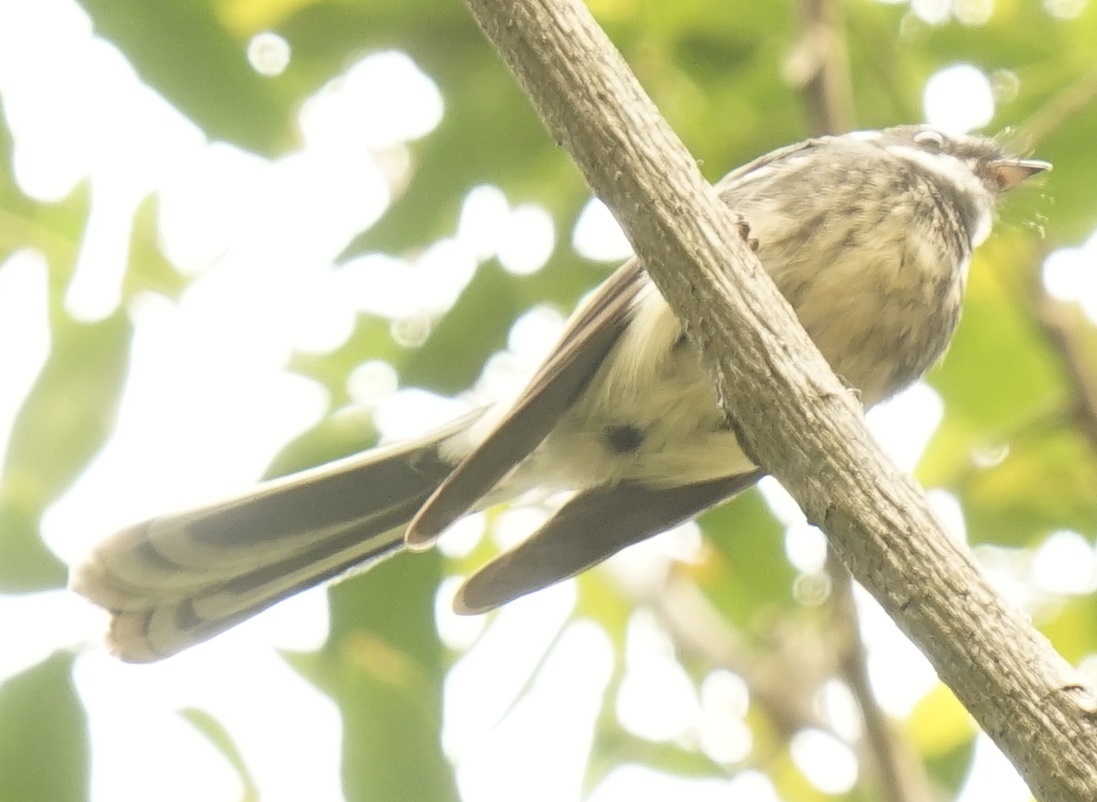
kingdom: Animalia
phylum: Chordata
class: Aves
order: Passeriformes
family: Rhipiduridae
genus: Rhipidura
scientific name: Rhipidura albiscapa
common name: Grey fantail
